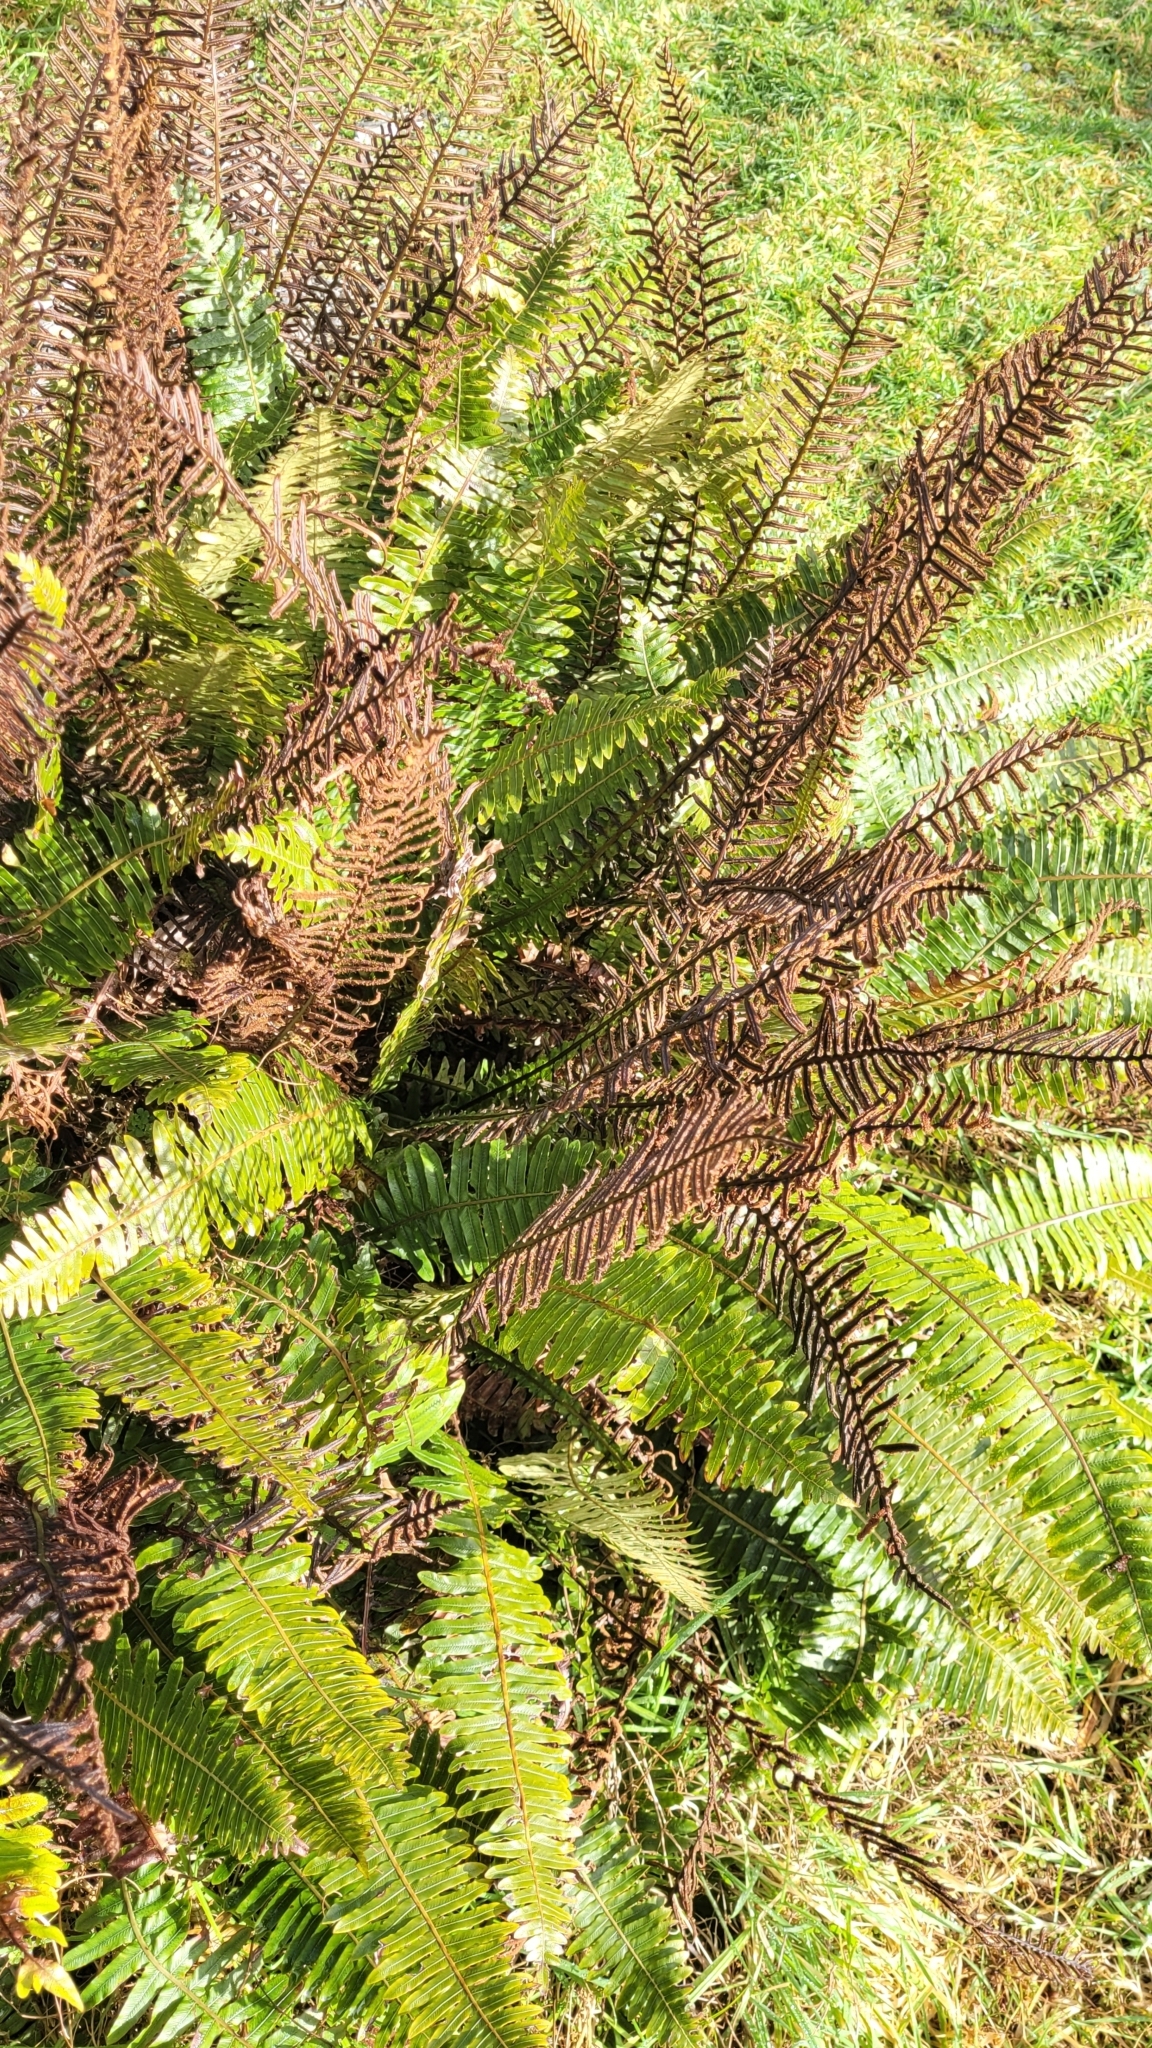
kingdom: Plantae
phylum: Tracheophyta
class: Polypodiopsida
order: Polypodiales
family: Blechnaceae
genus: Lomaria
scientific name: Lomaria discolor
